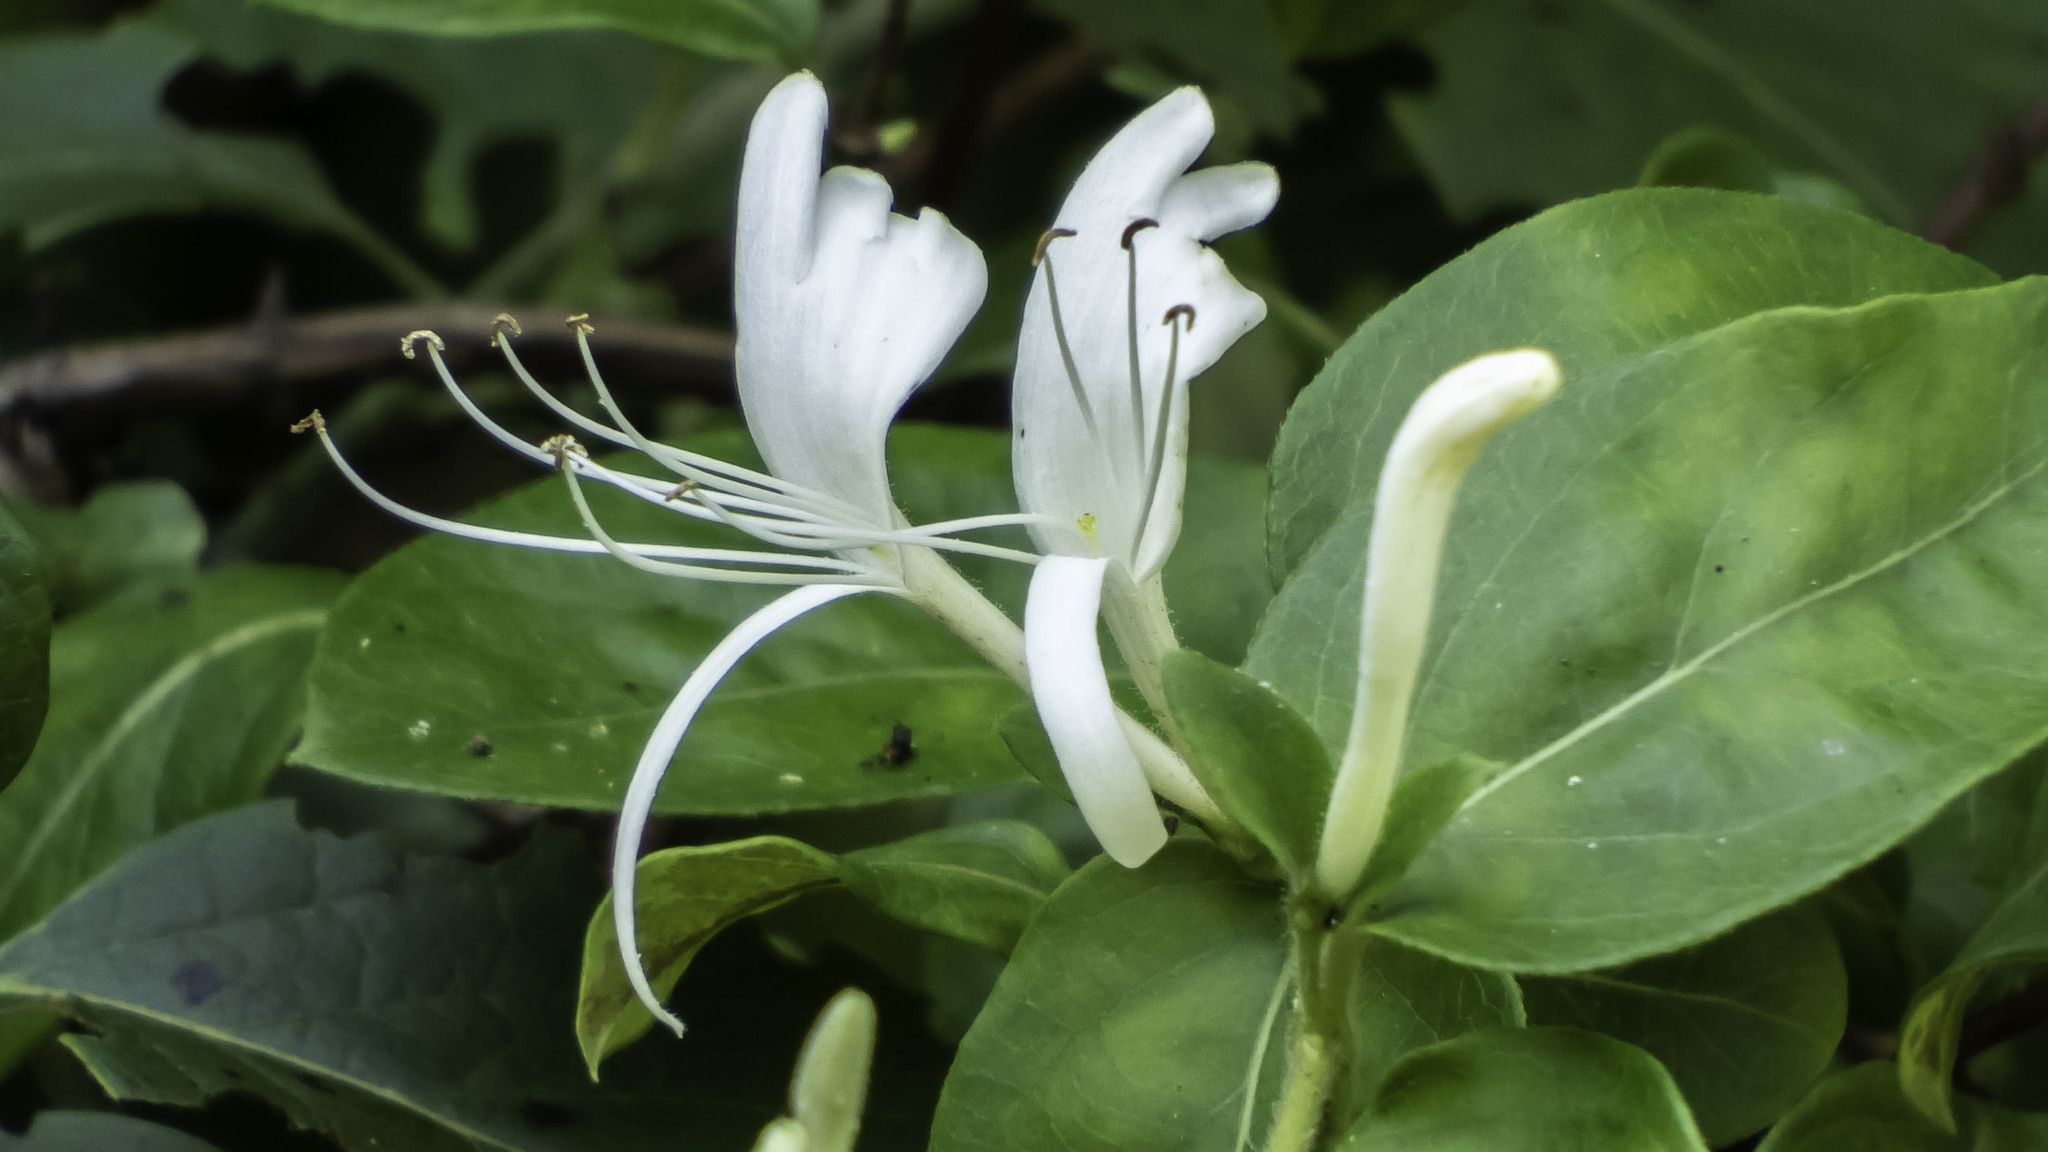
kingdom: Plantae
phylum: Tracheophyta
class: Magnoliopsida
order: Dipsacales
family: Caprifoliaceae
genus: Lonicera
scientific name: Lonicera japonica
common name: Japanese honeysuckle
